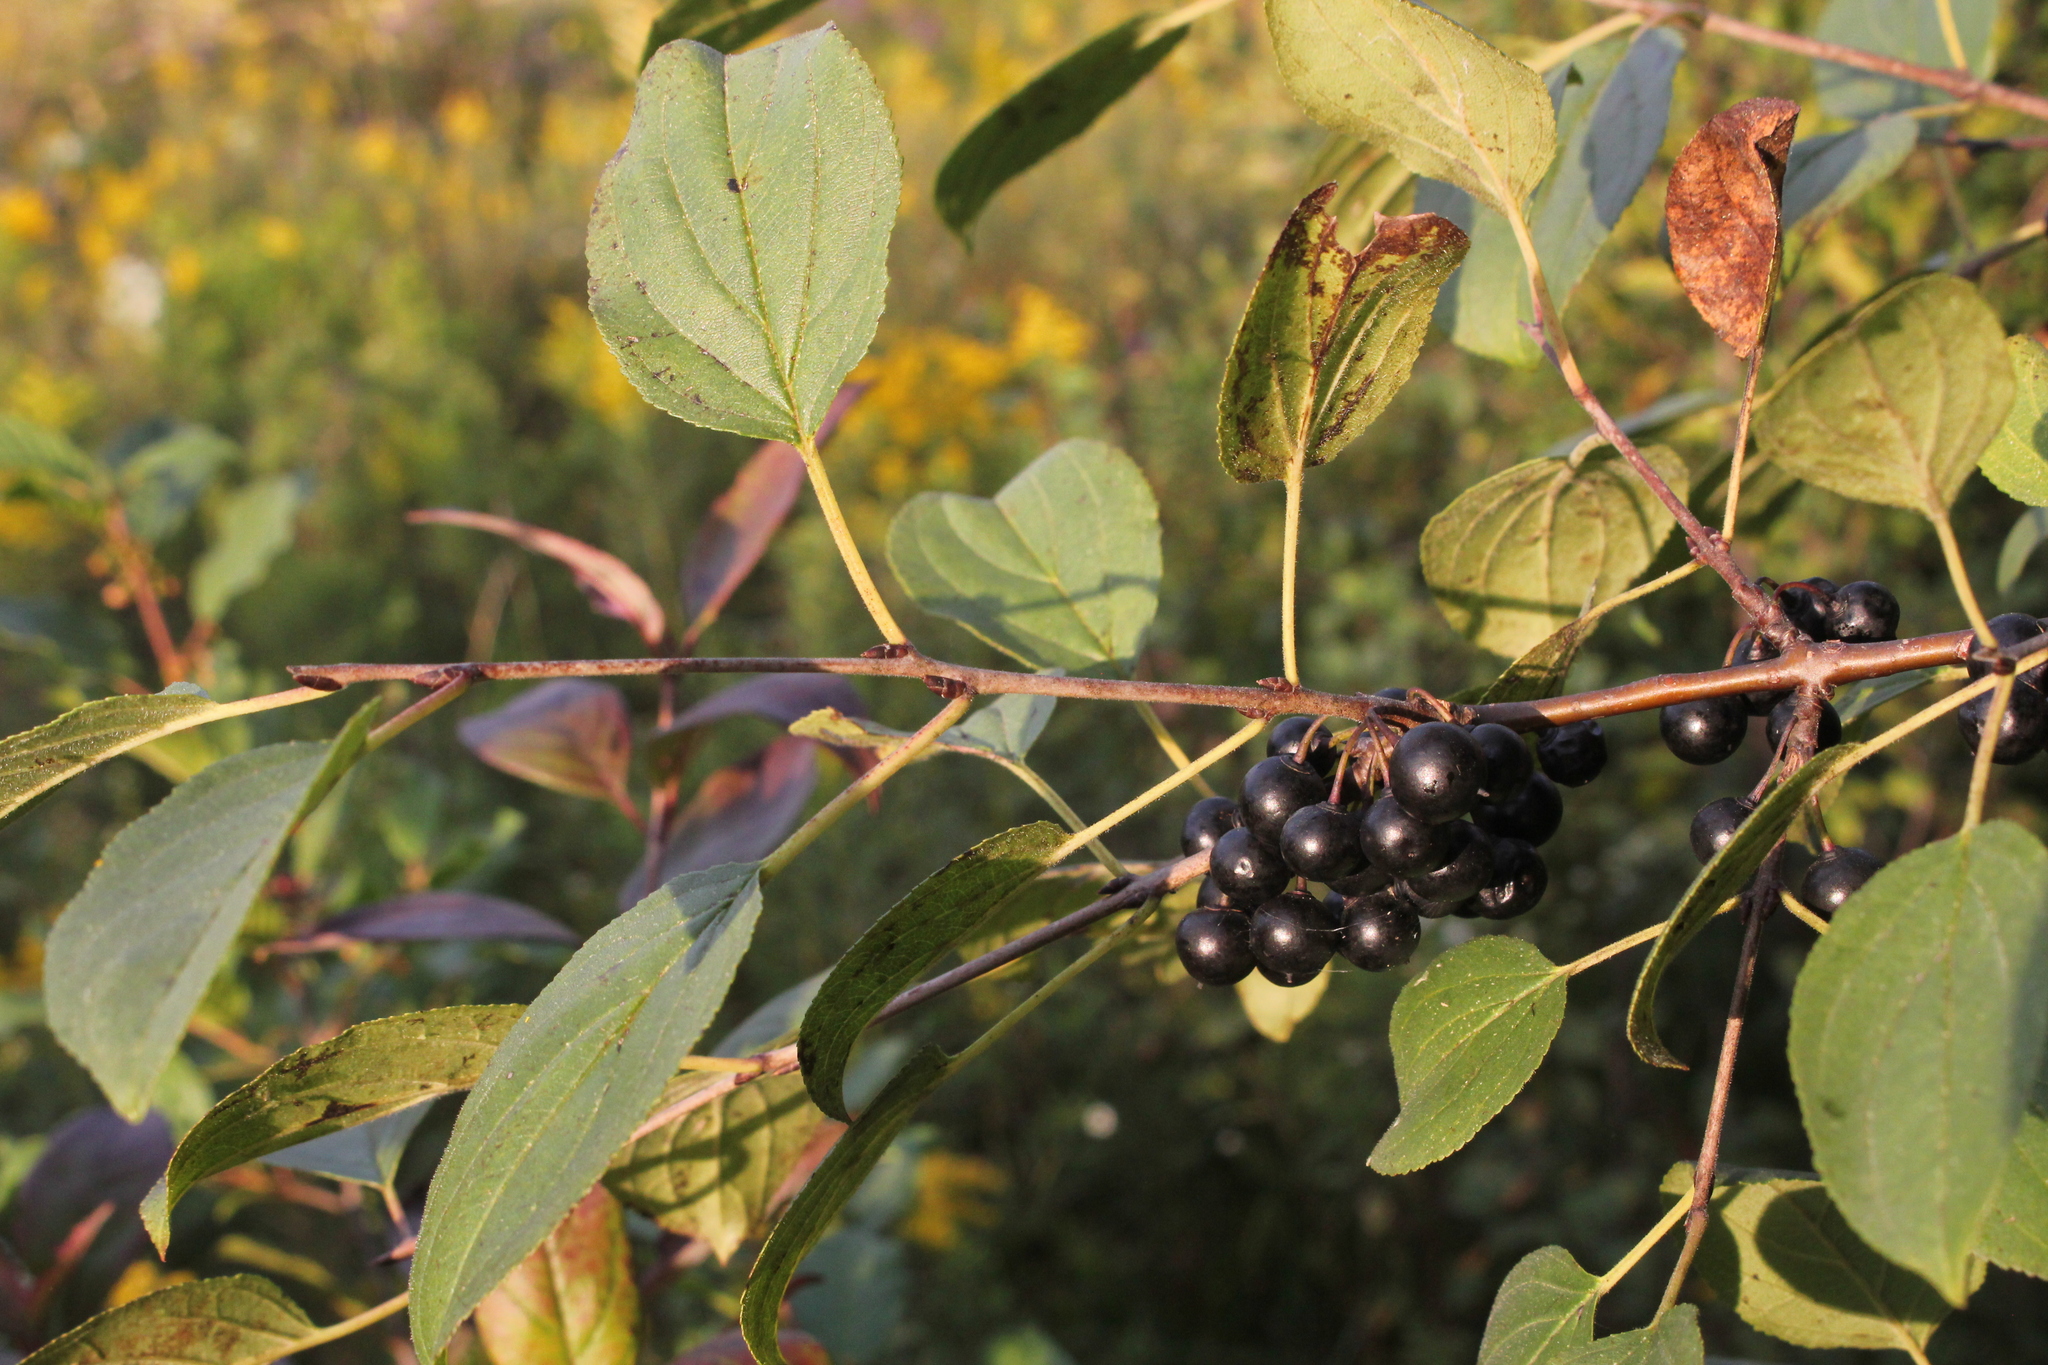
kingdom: Plantae
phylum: Tracheophyta
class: Magnoliopsida
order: Rosales
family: Rhamnaceae
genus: Rhamnus
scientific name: Rhamnus cathartica
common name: Common buckthorn
